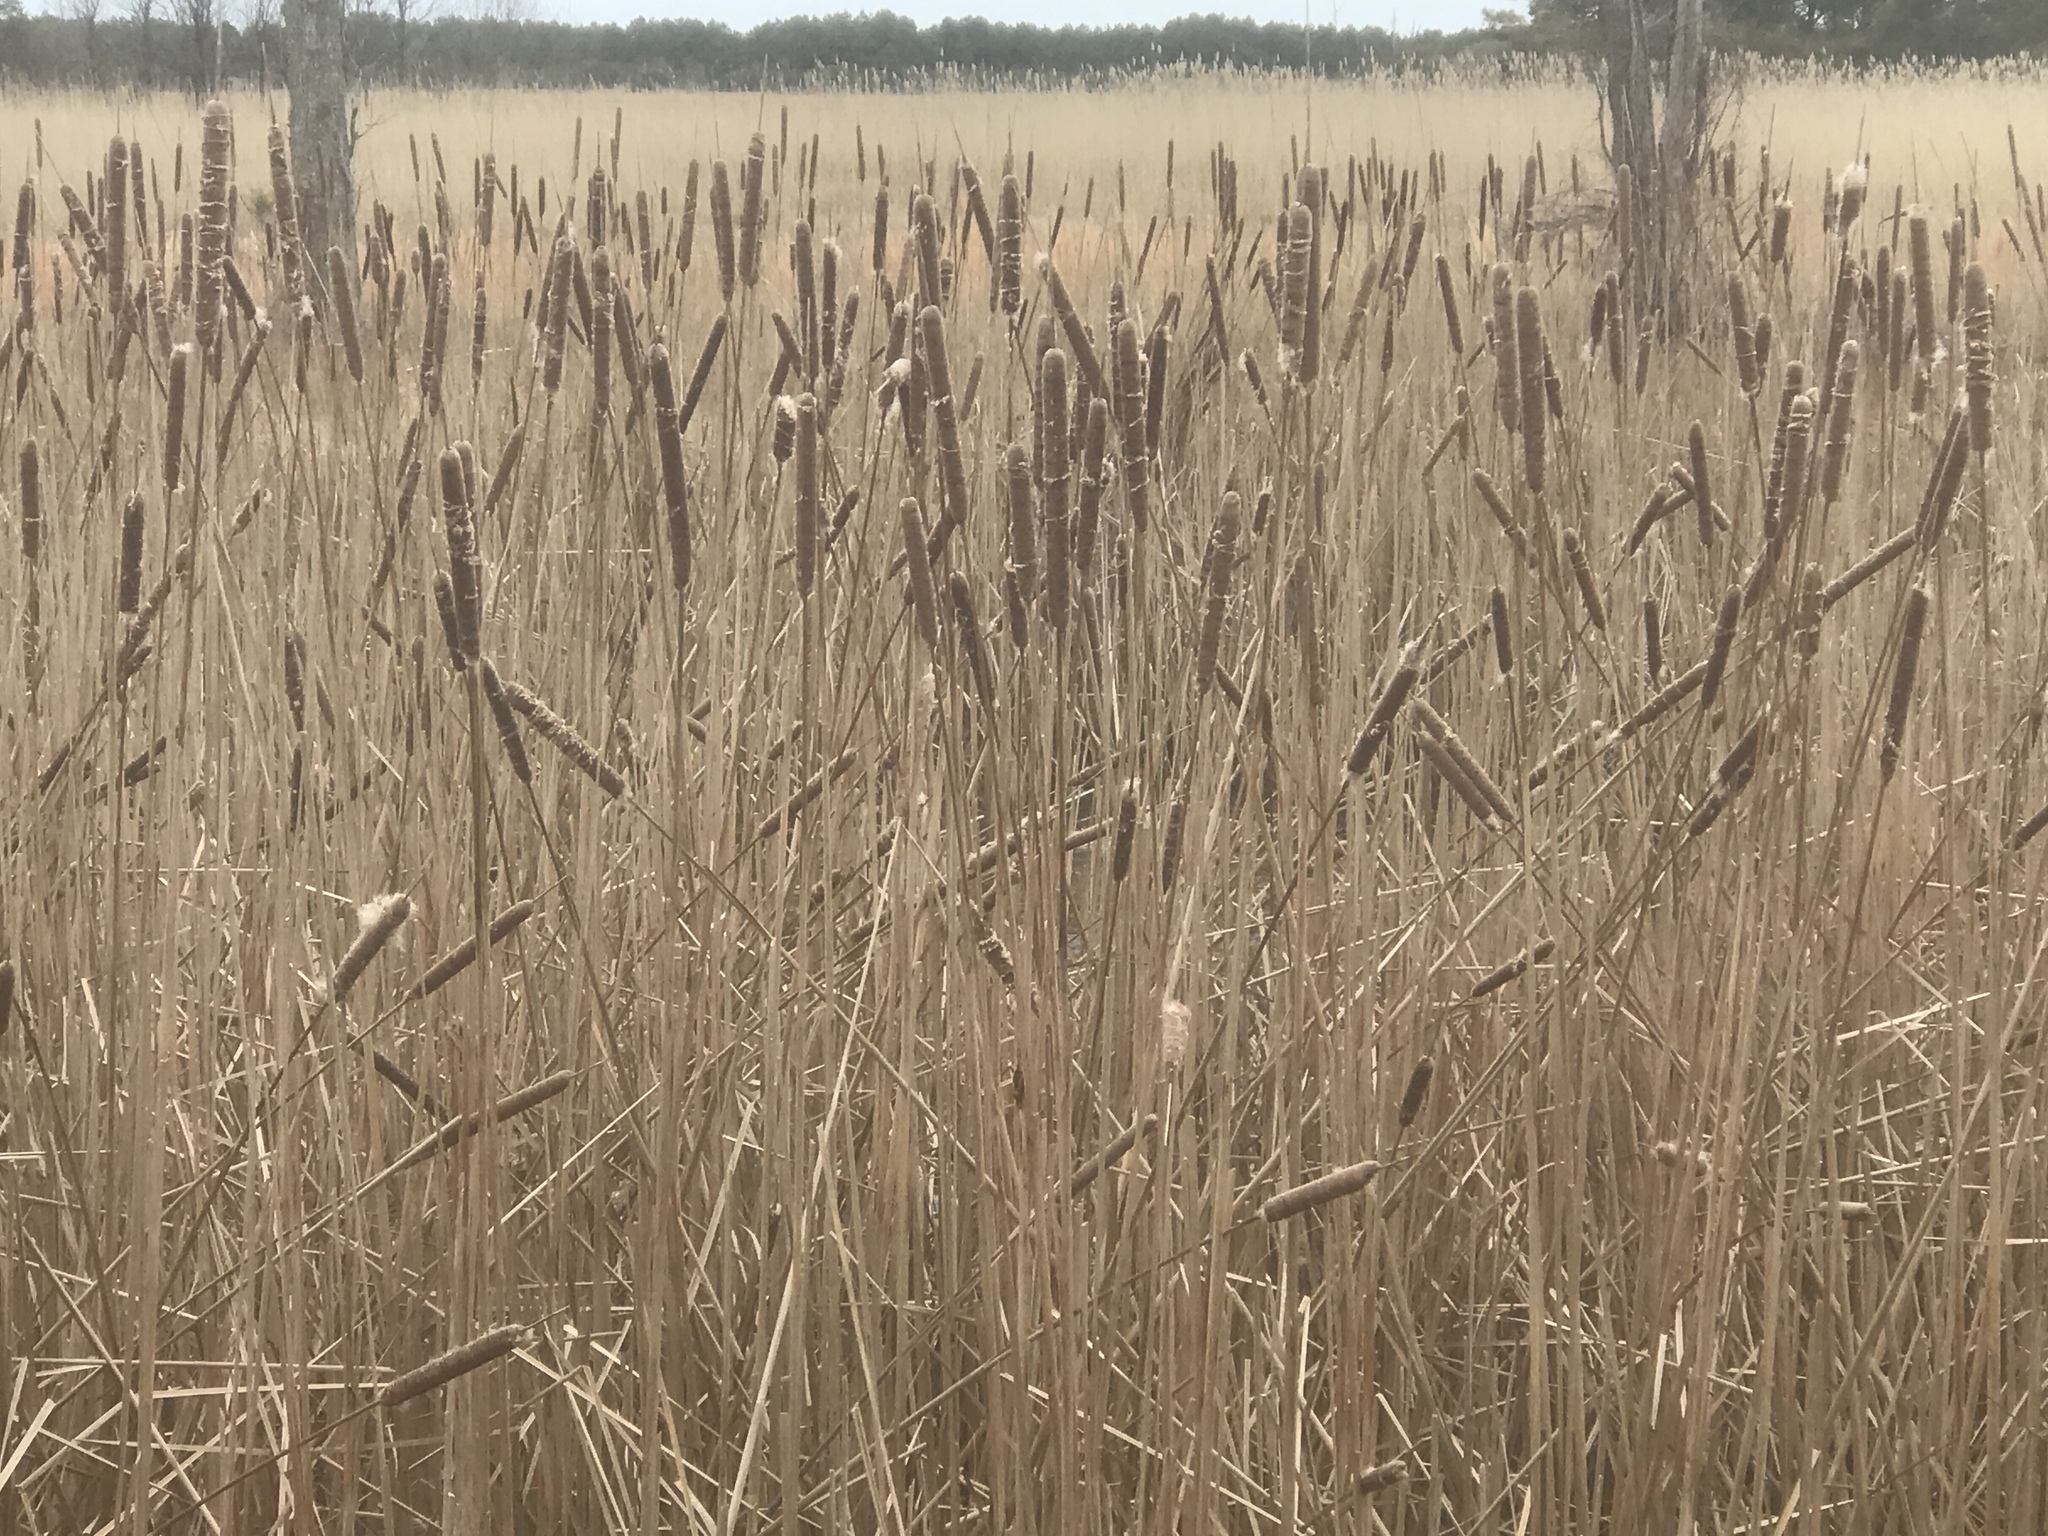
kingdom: Plantae
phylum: Tracheophyta
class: Liliopsida
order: Poales
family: Typhaceae
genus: Typha
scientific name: Typha angustifolia
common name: Lesser bulrush
